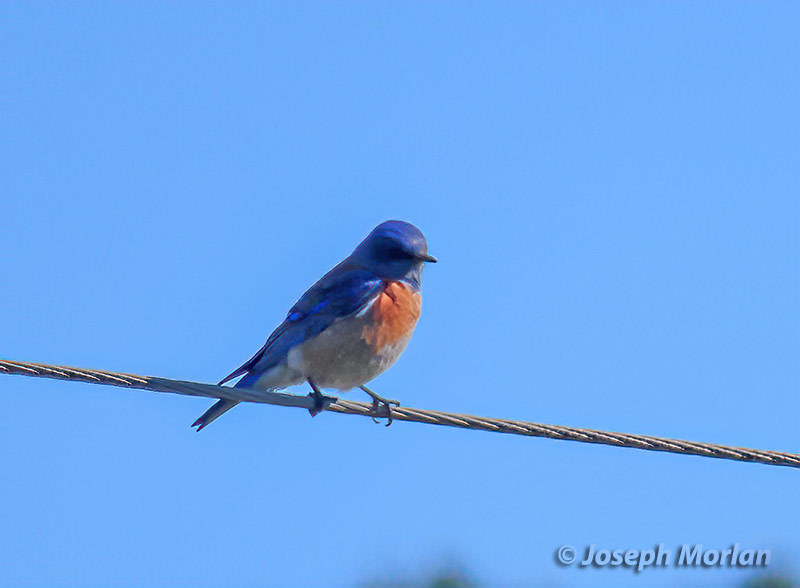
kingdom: Animalia
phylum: Chordata
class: Aves
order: Passeriformes
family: Turdidae
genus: Sialia
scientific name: Sialia mexicana
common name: Western bluebird
